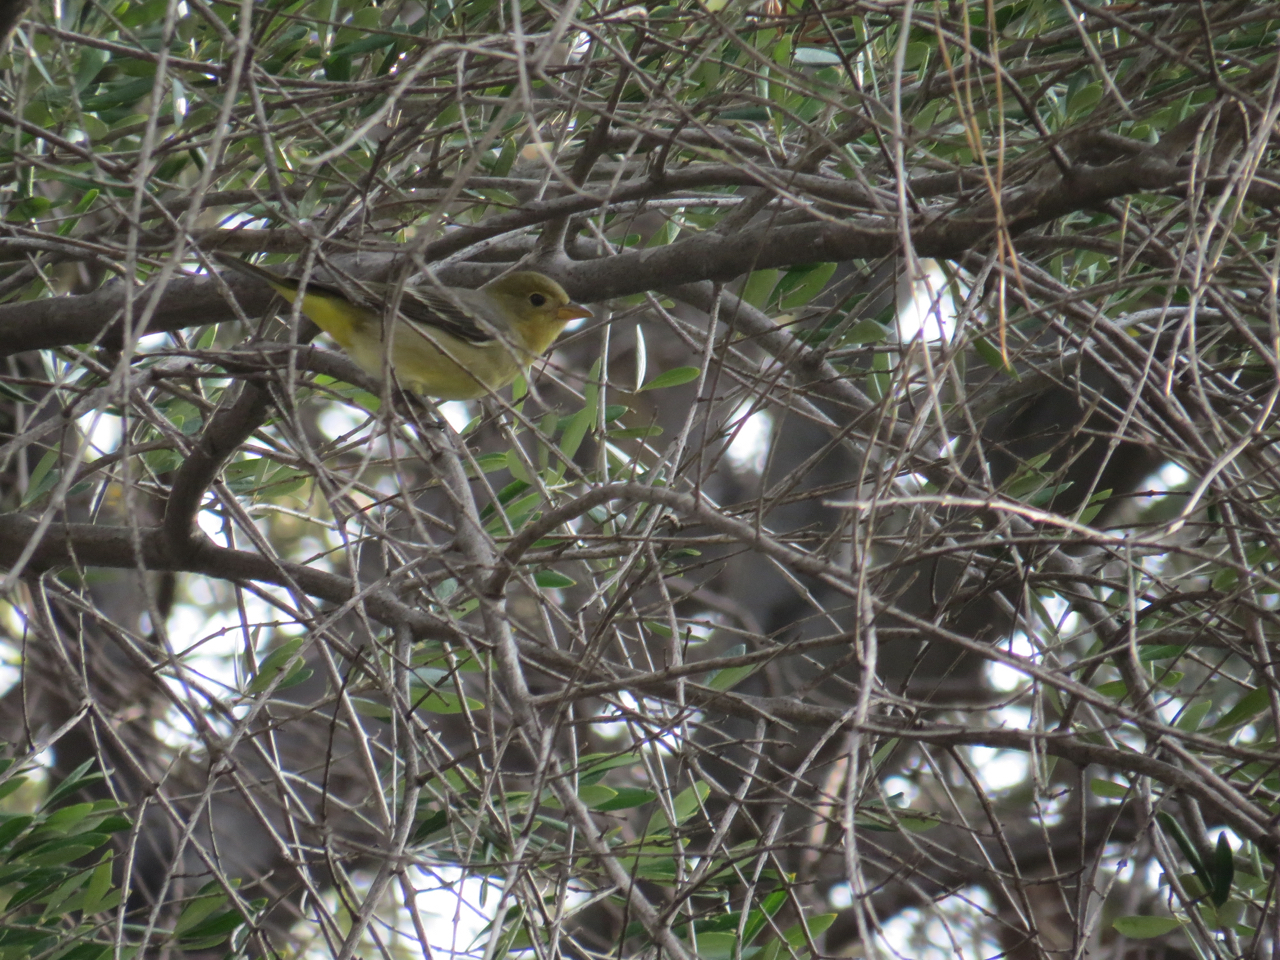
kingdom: Animalia
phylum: Chordata
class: Aves
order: Passeriformes
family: Cardinalidae
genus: Piranga
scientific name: Piranga ludoviciana
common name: Western tanager
